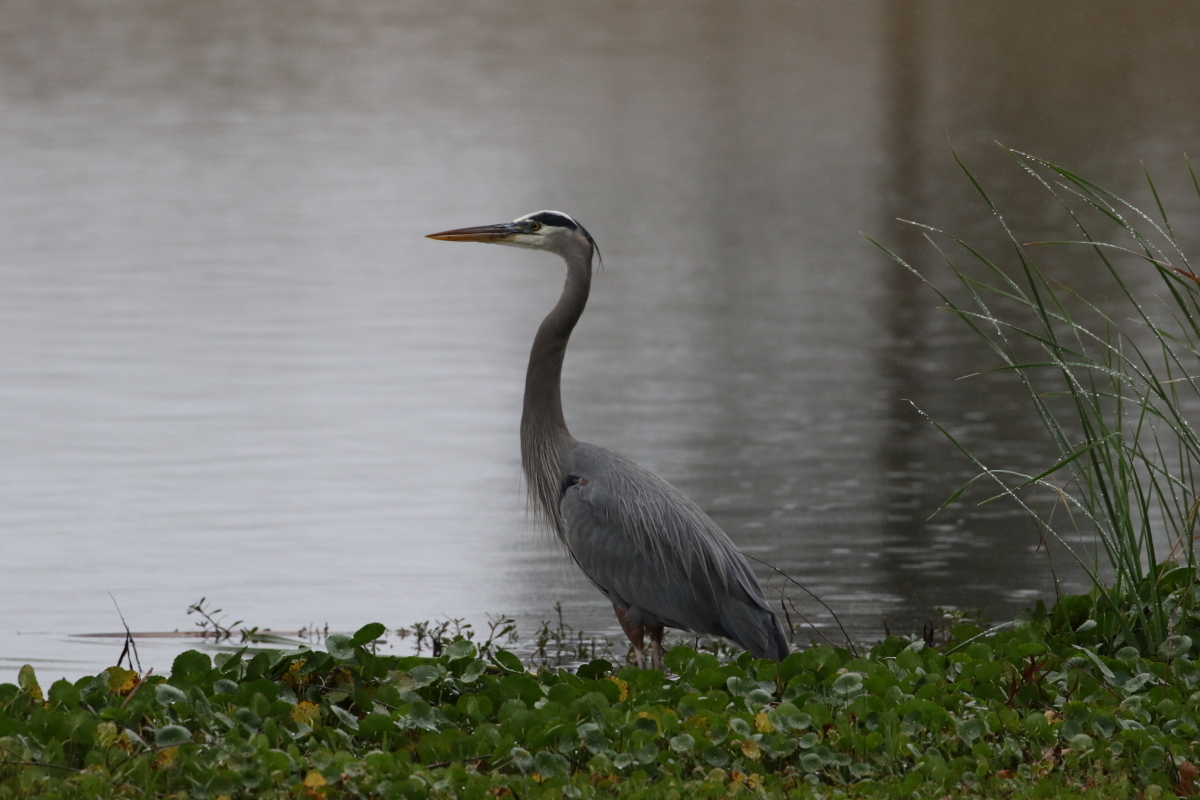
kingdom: Animalia
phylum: Chordata
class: Aves
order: Pelecaniformes
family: Ardeidae
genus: Ardea
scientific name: Ardea herodias
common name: Great blue heron
